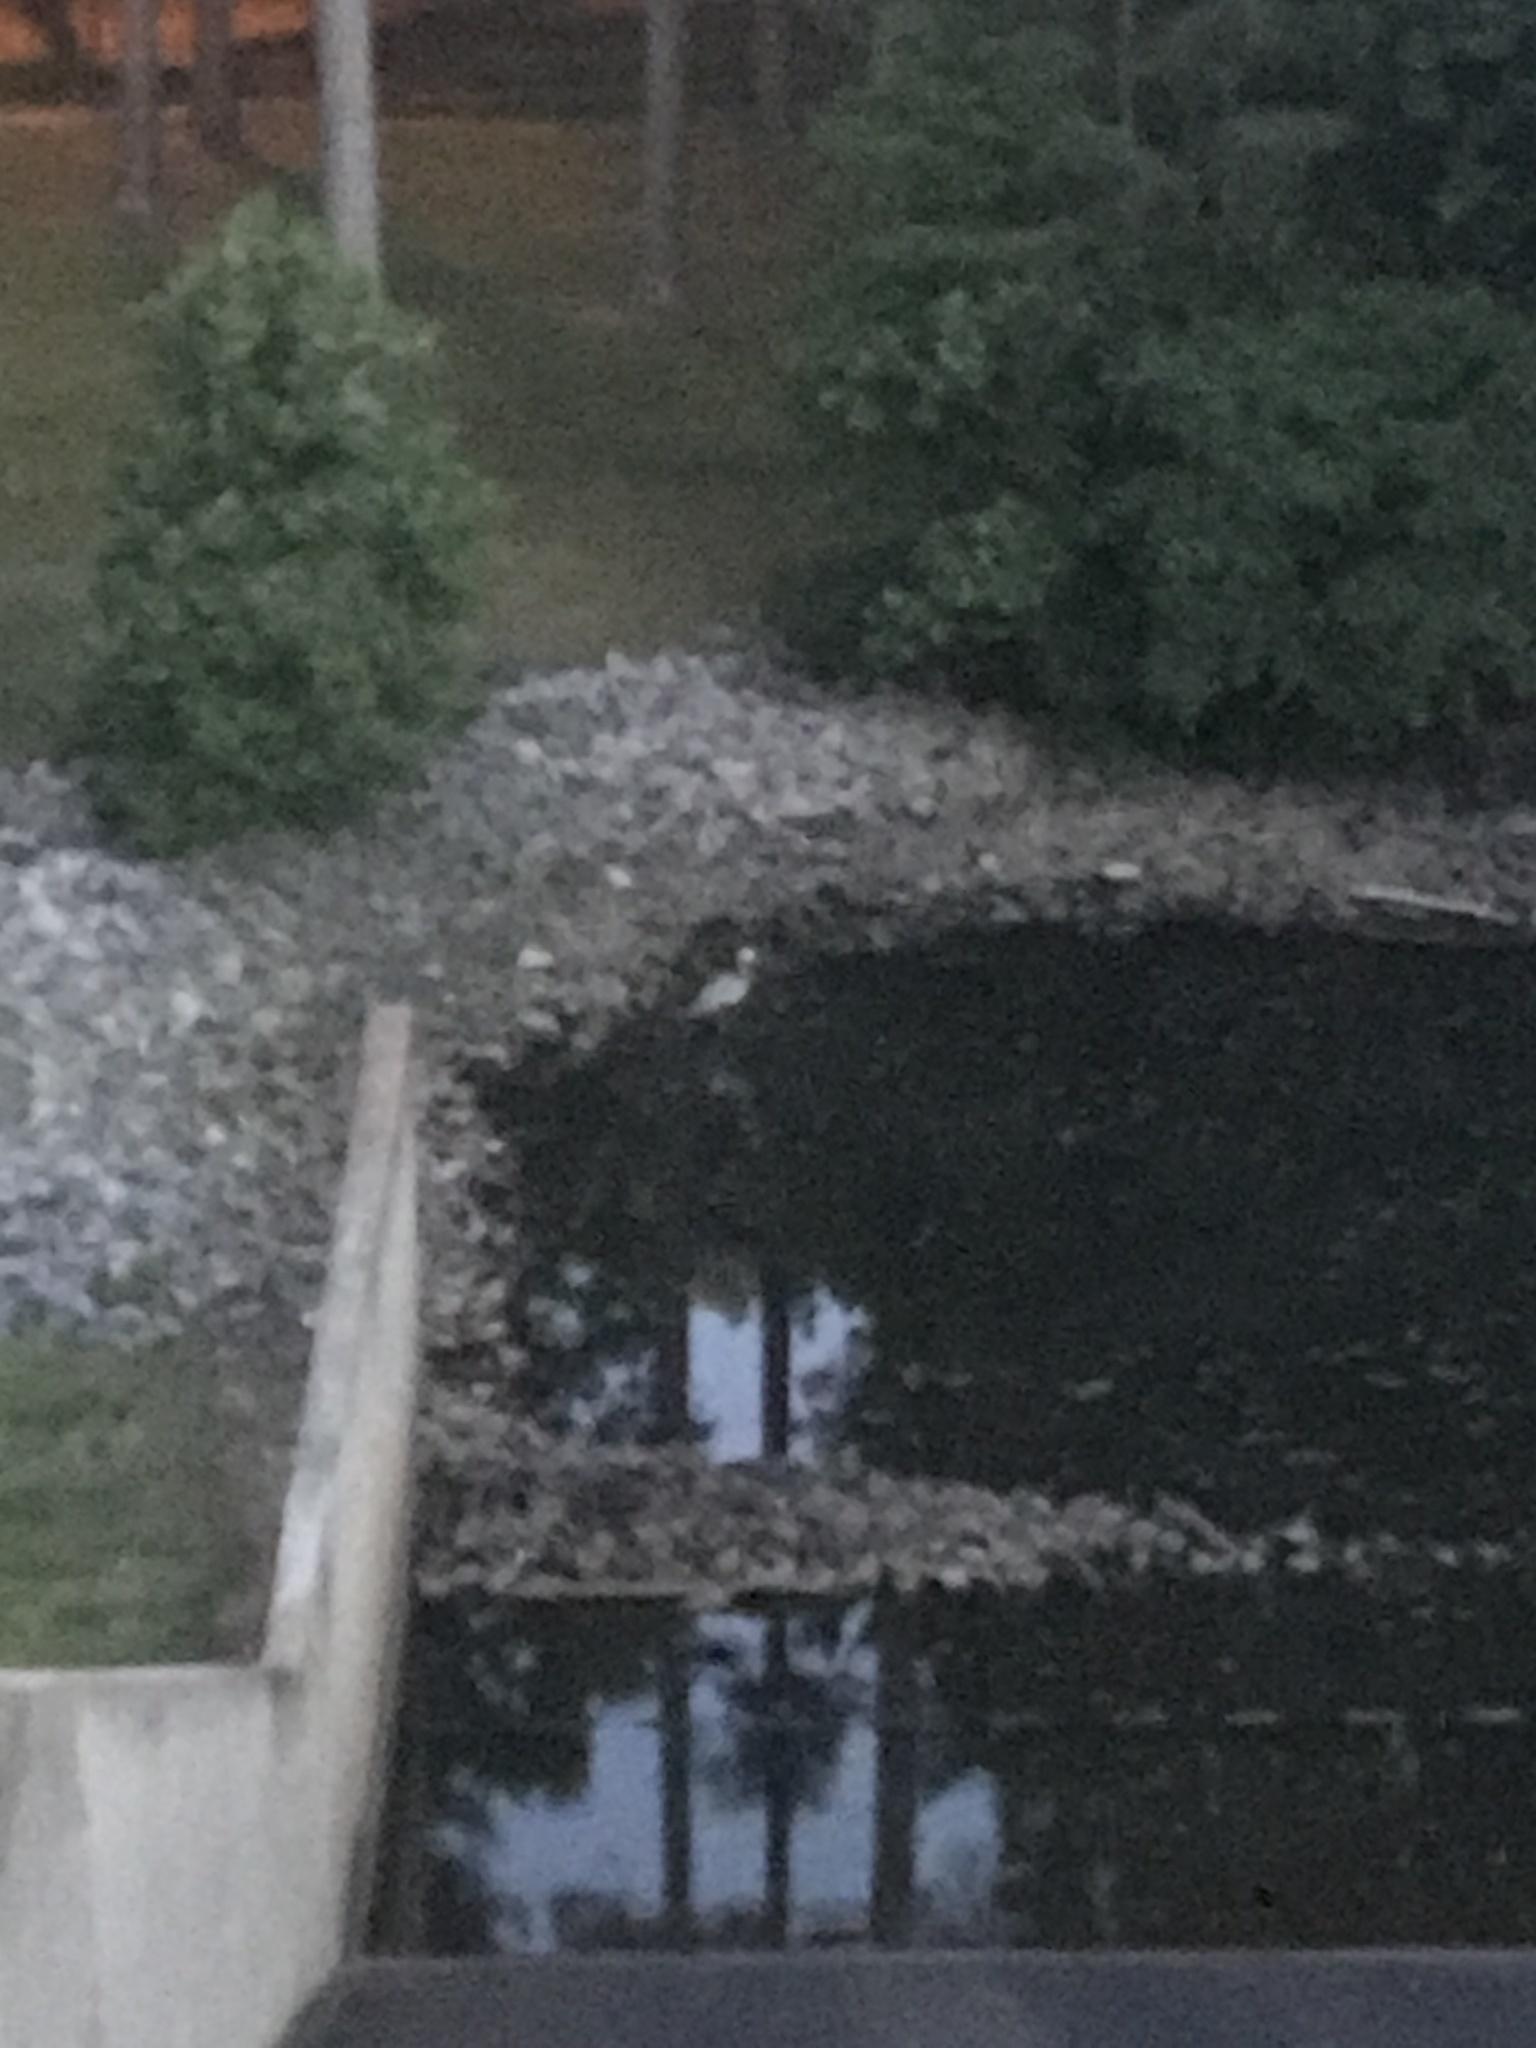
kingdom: Animalia
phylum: Chordata
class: Aves
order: Pelecaniformes
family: Ardeidae
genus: Ardea
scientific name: Ardea herodias
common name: Great blue heron
